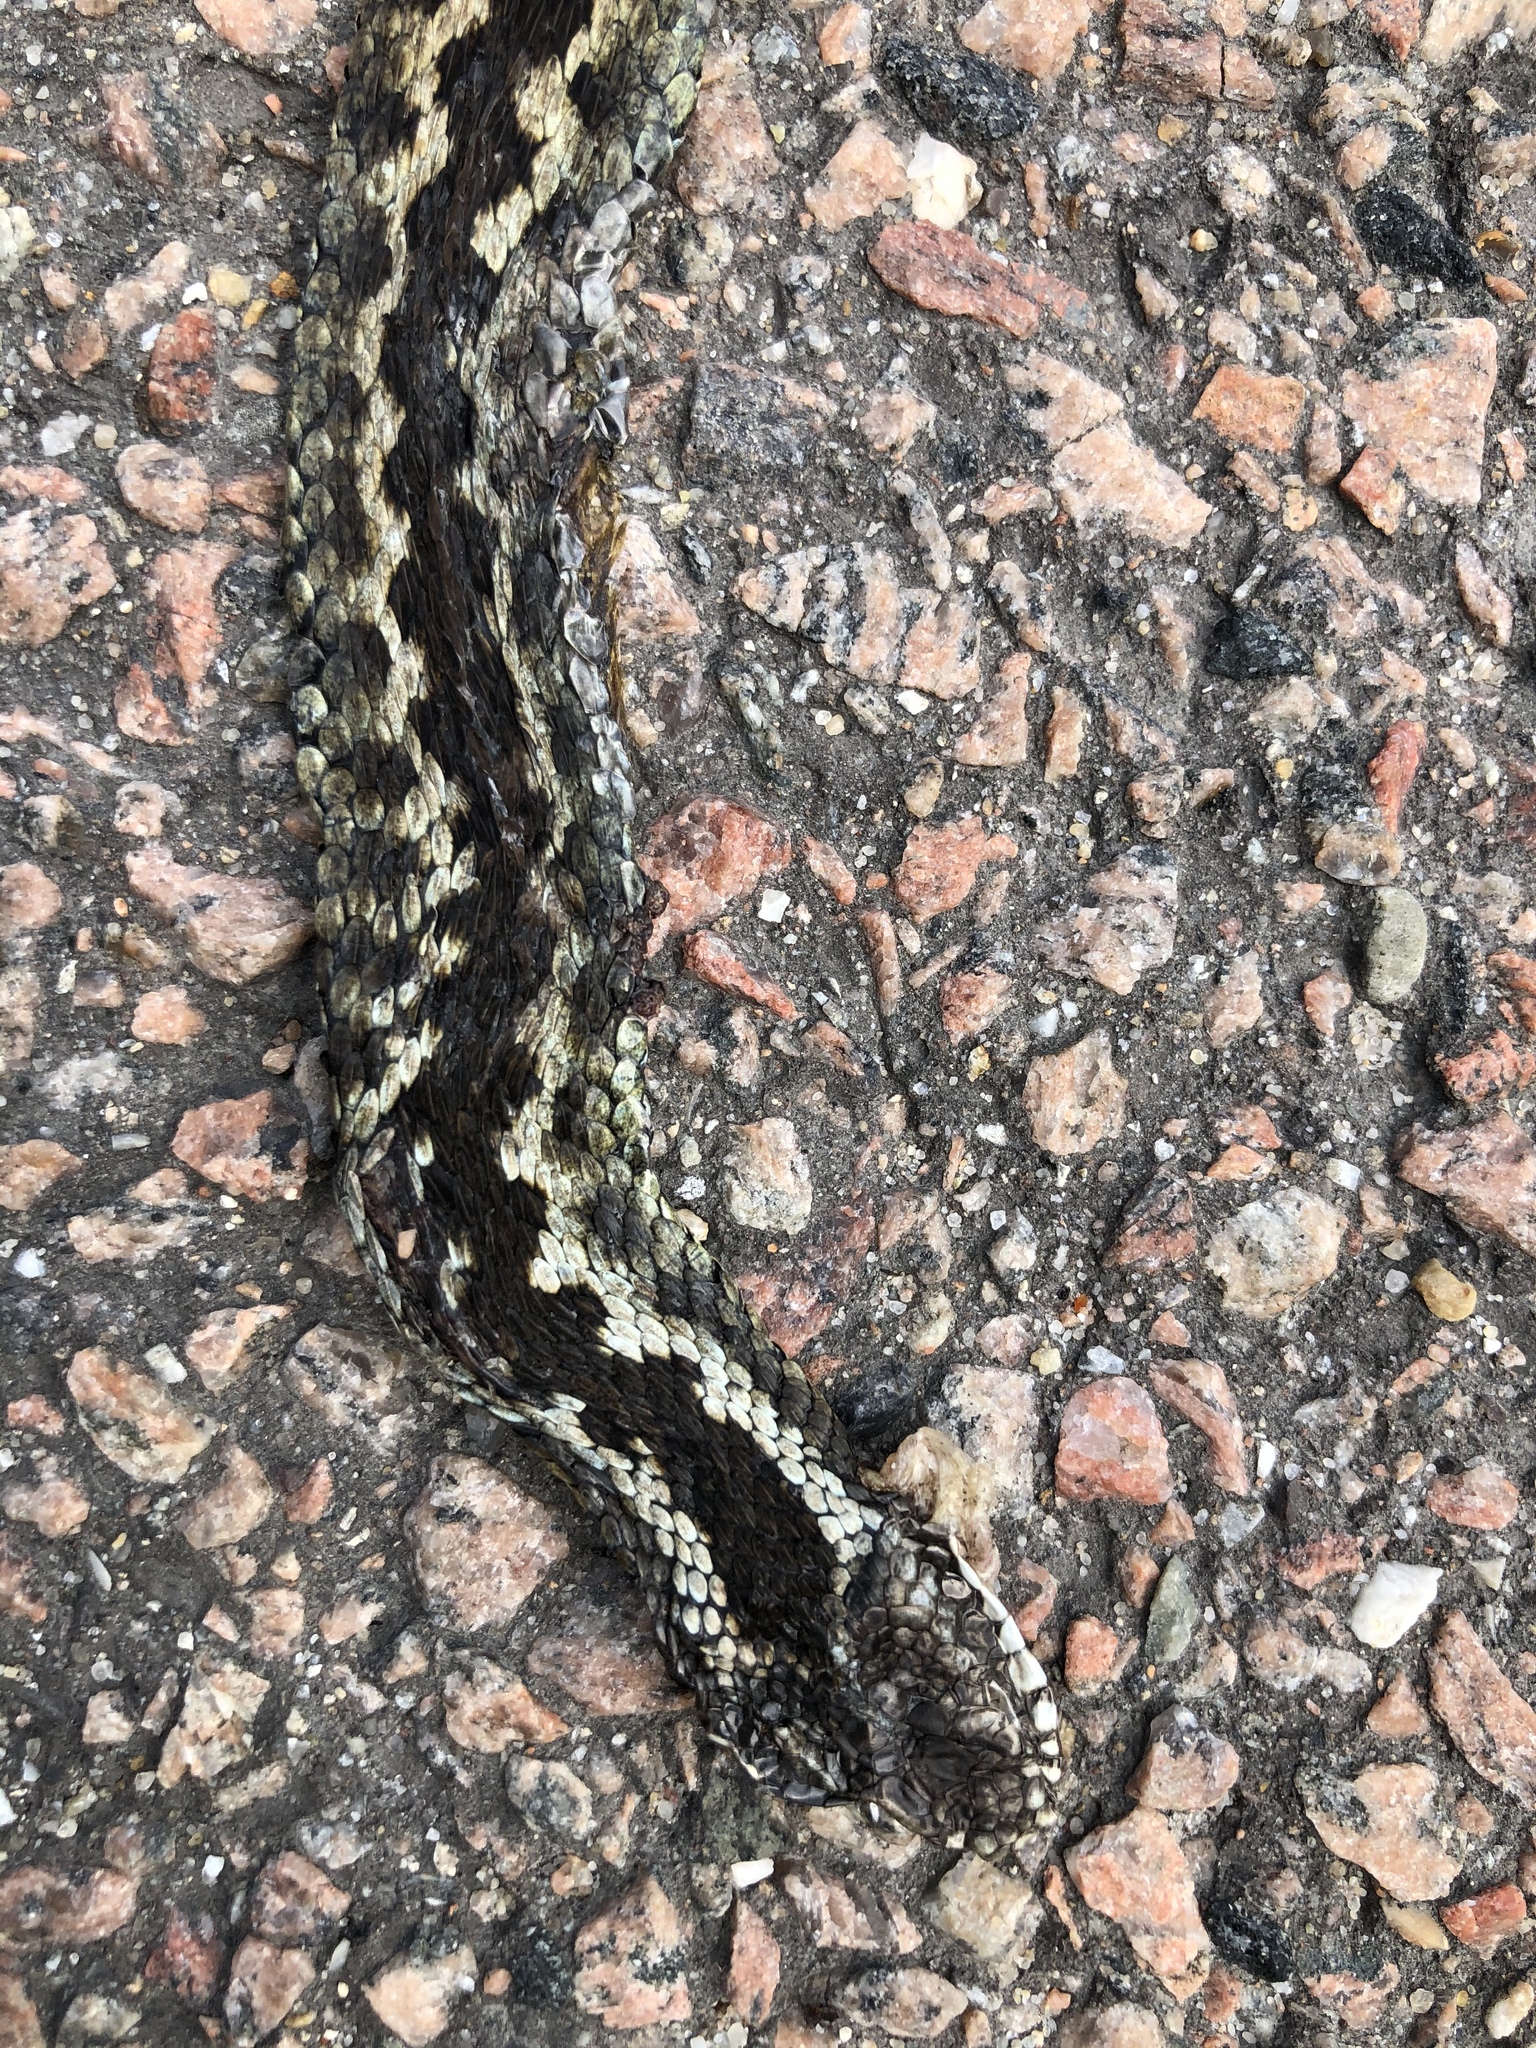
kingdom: Animalia
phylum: Chordata
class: Squamata
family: Viperidae
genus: Vipera
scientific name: Vipera berus
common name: Adder
